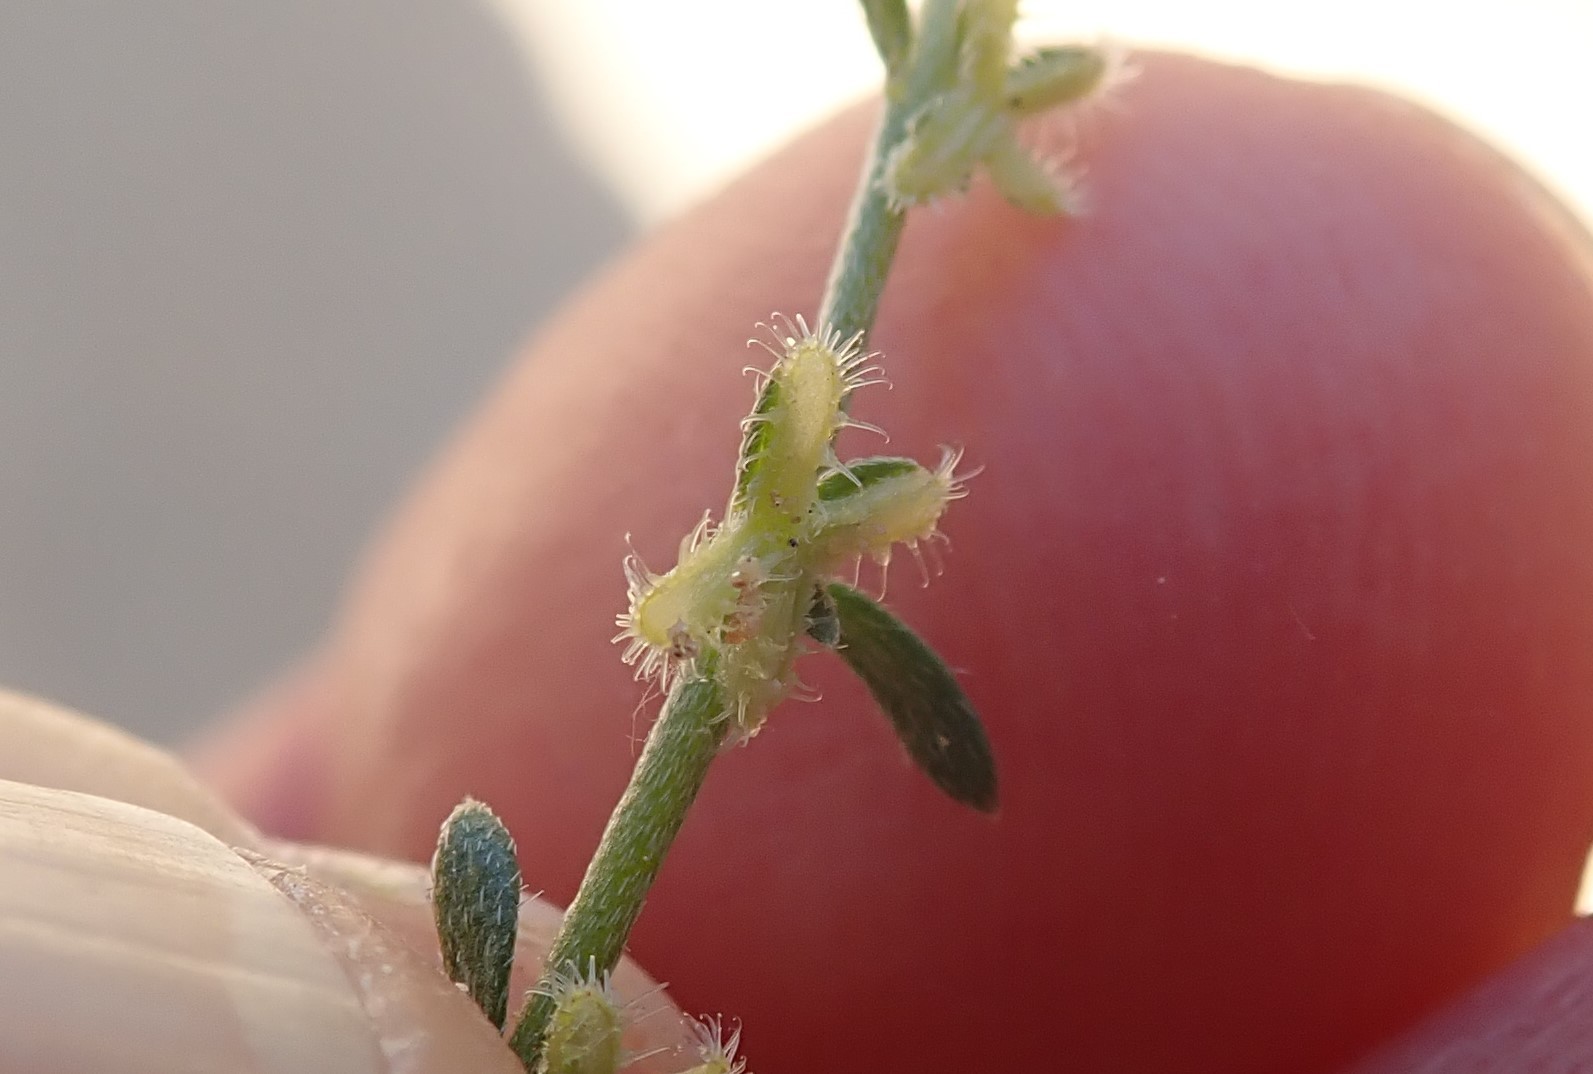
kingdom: Plantae
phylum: Tracheophyta
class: Magnoliopsida
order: Boraginales
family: Boraginaceae
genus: Pectocarya
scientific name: Pectocarya linearis
